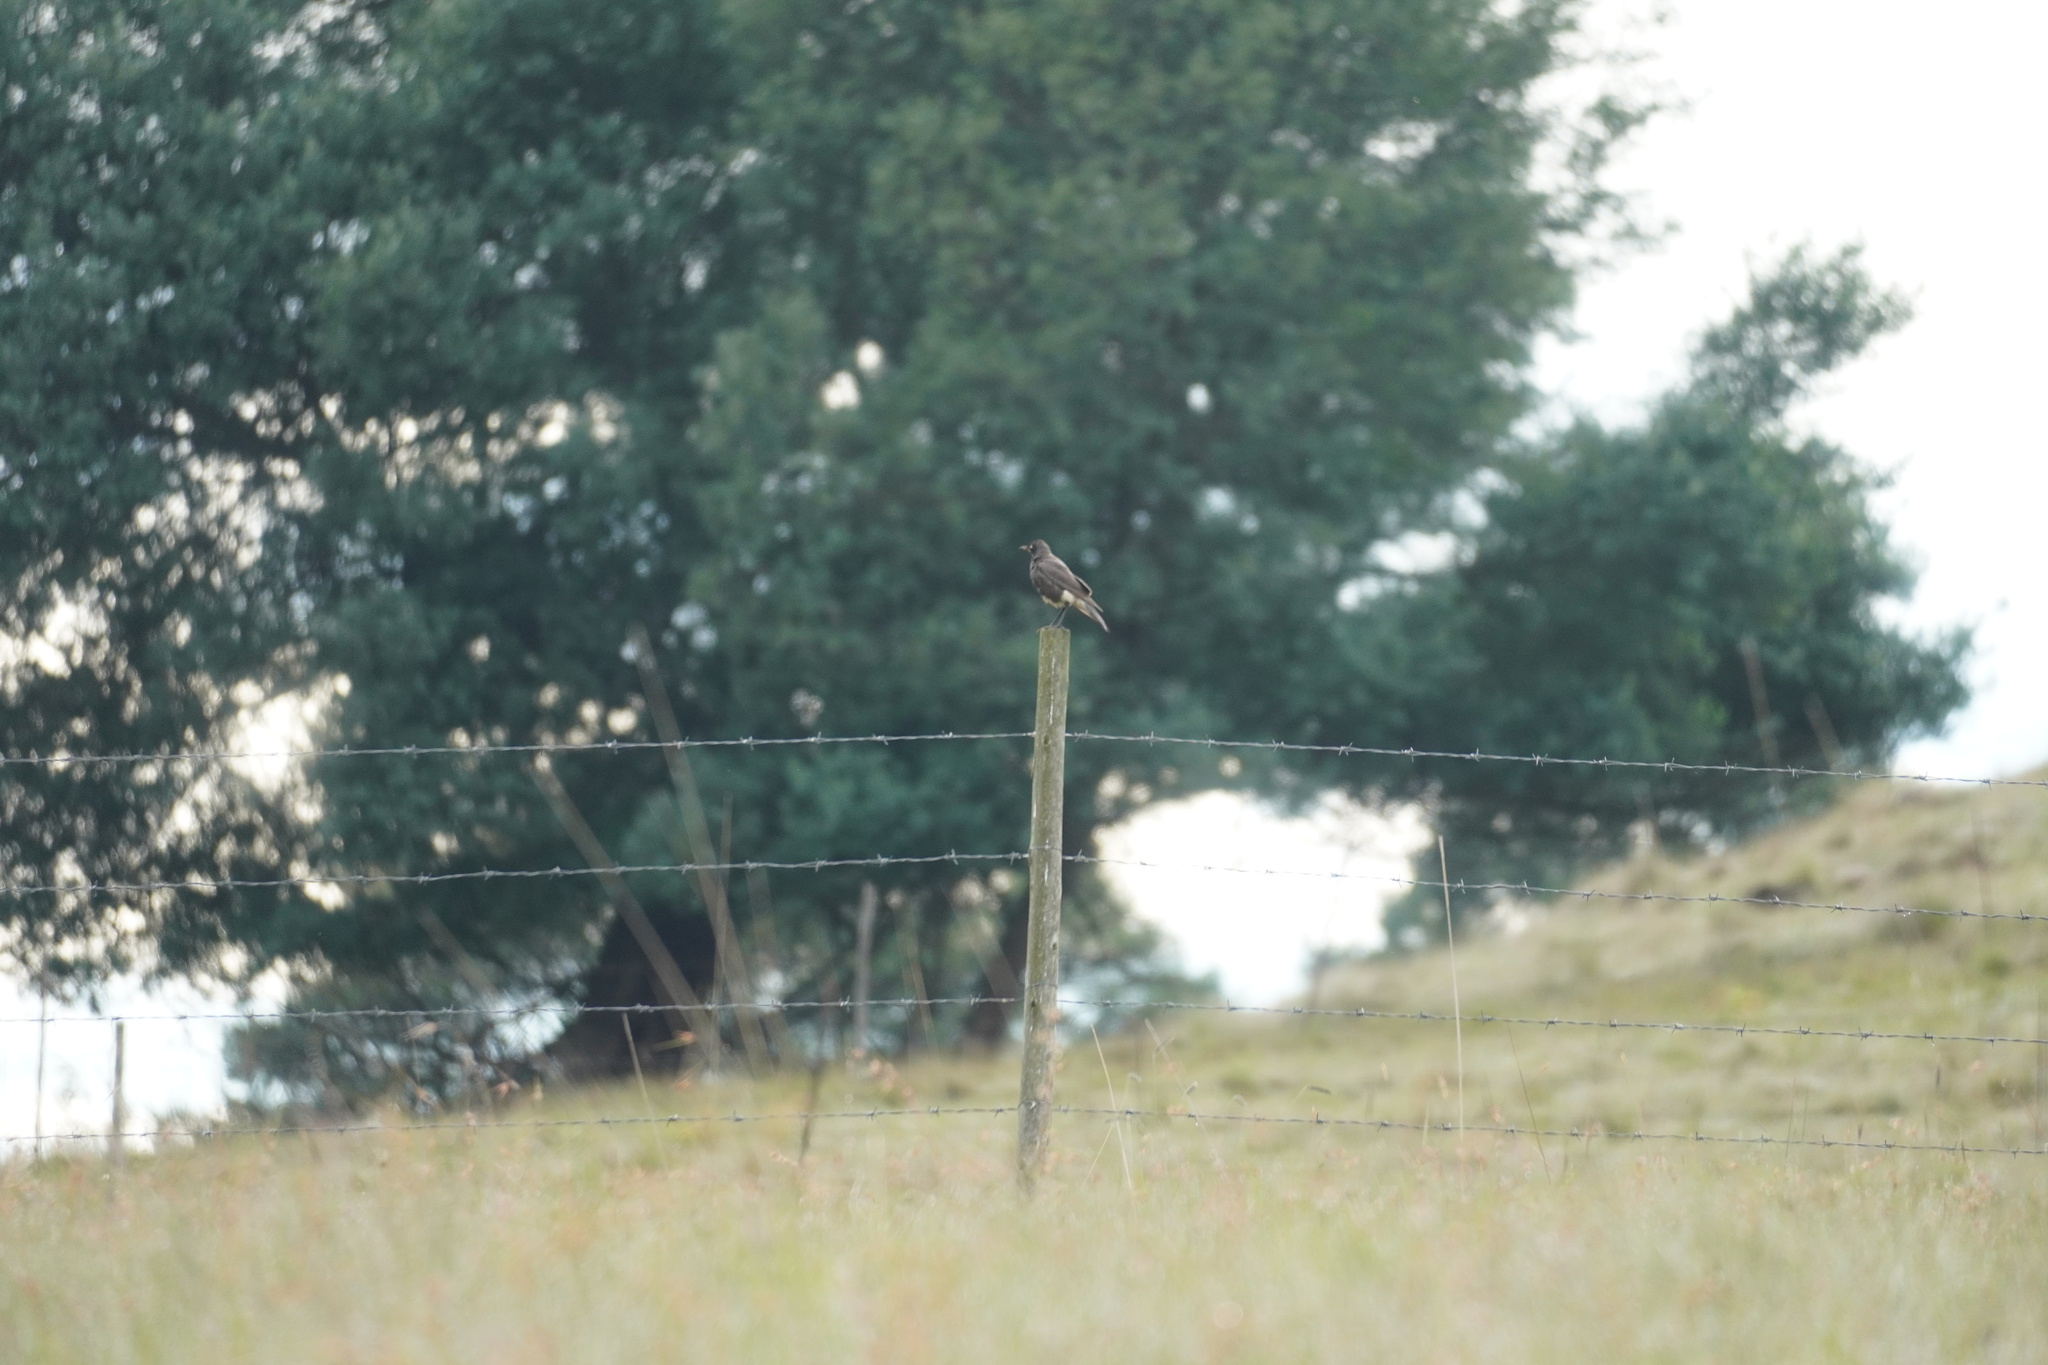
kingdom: Animalia
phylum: Chordata
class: Aves
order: Passeriformes
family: Sturnidae
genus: Lamprotornis
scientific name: Lamprotornis bicolor
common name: Pied starling
